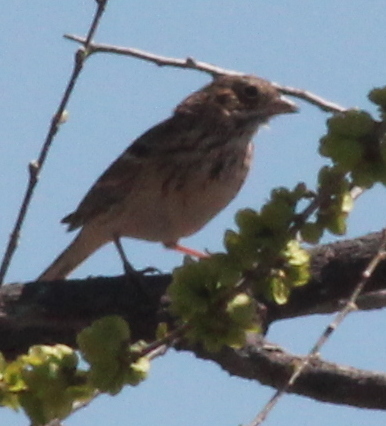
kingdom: Animalia
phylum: Chordata
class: Aves
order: Passeriformes
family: Passerellidae
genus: Pooecetes
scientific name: Pooecetes gramineus
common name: Vesper sparrow
